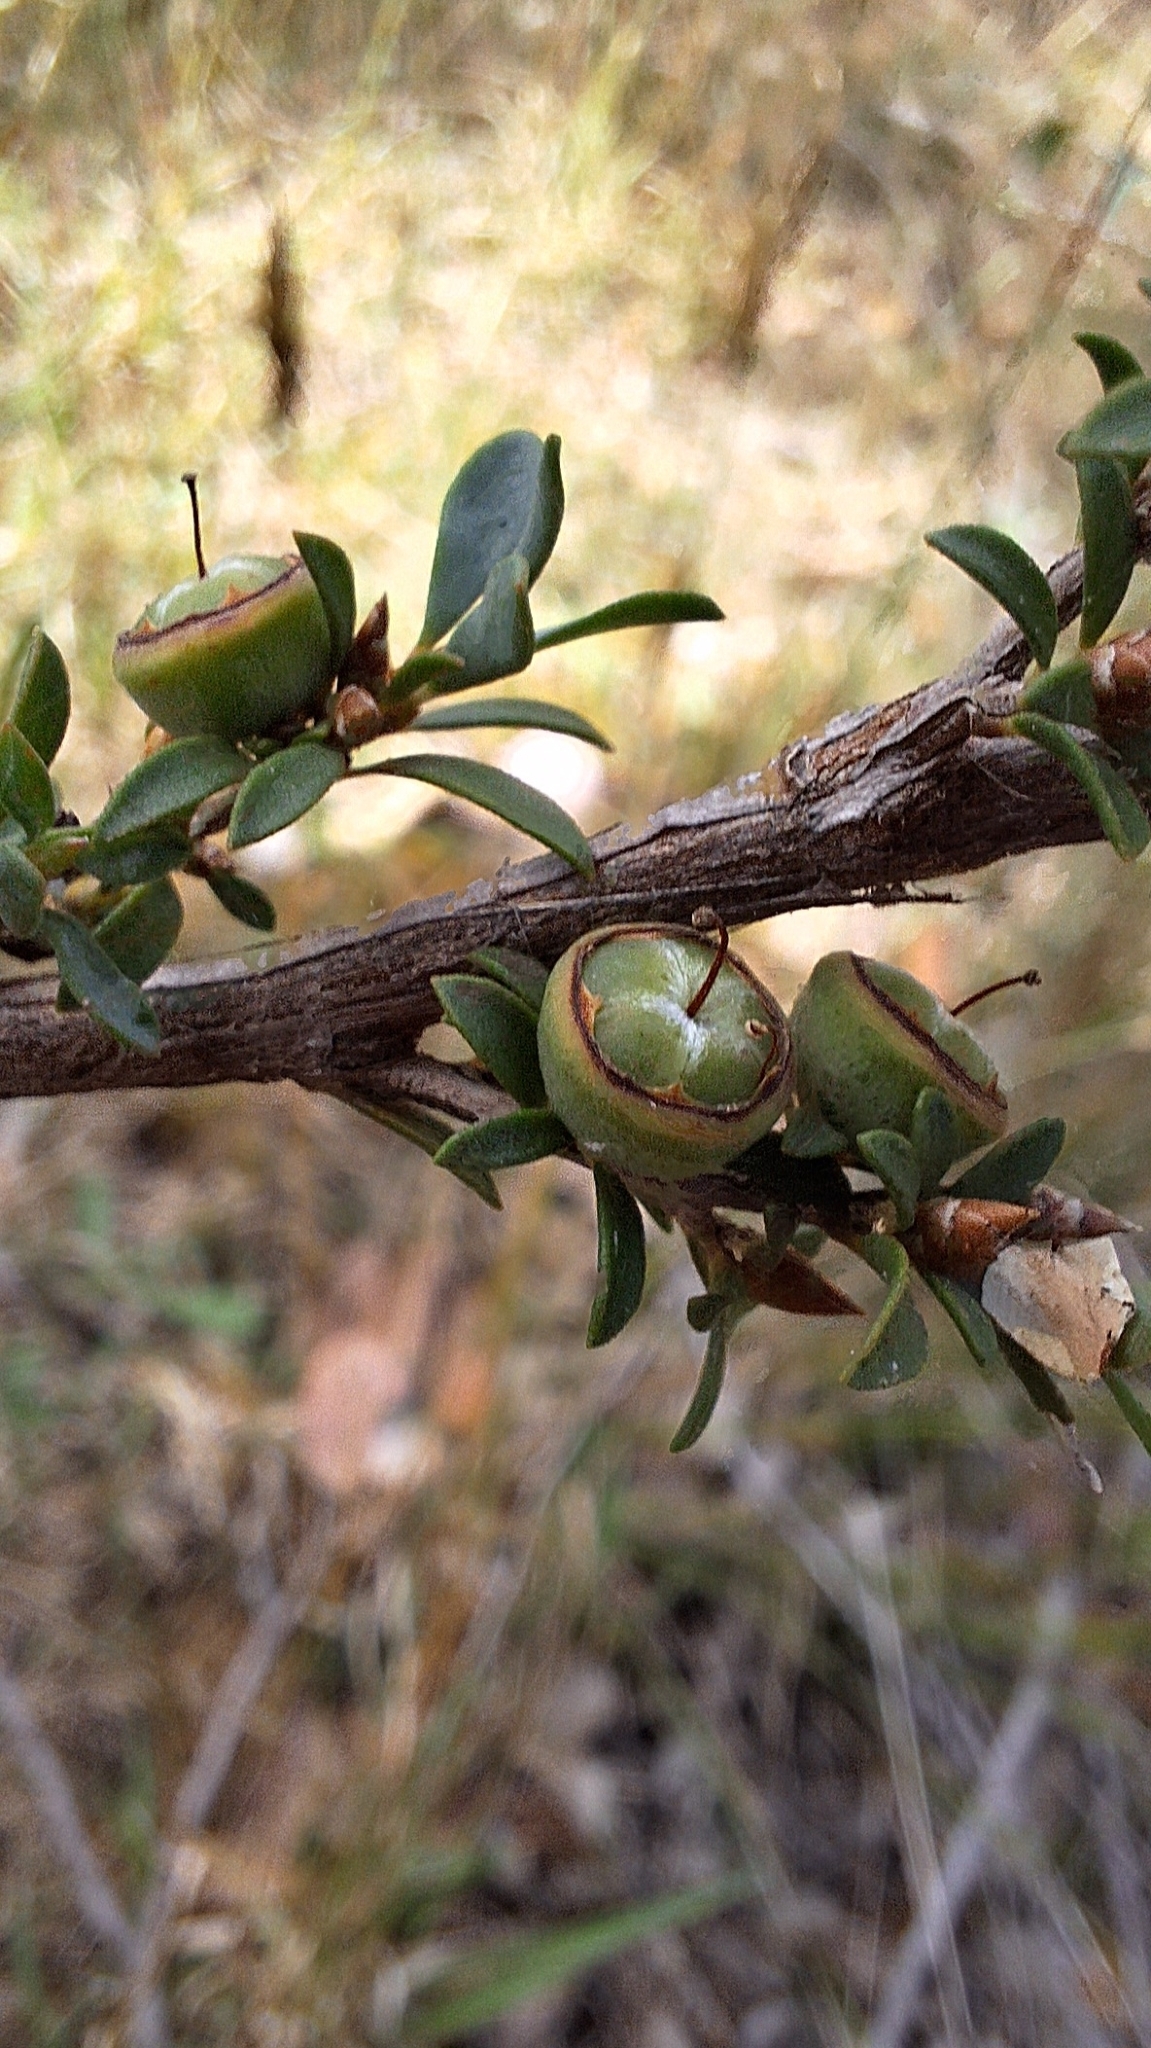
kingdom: Plantae
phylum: Tracheophyta
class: Magnoliopsida
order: Myrtales
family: Myrtaceae
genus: Leptospermum
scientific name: Leptospermum myrsinoides
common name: Heath teatree
